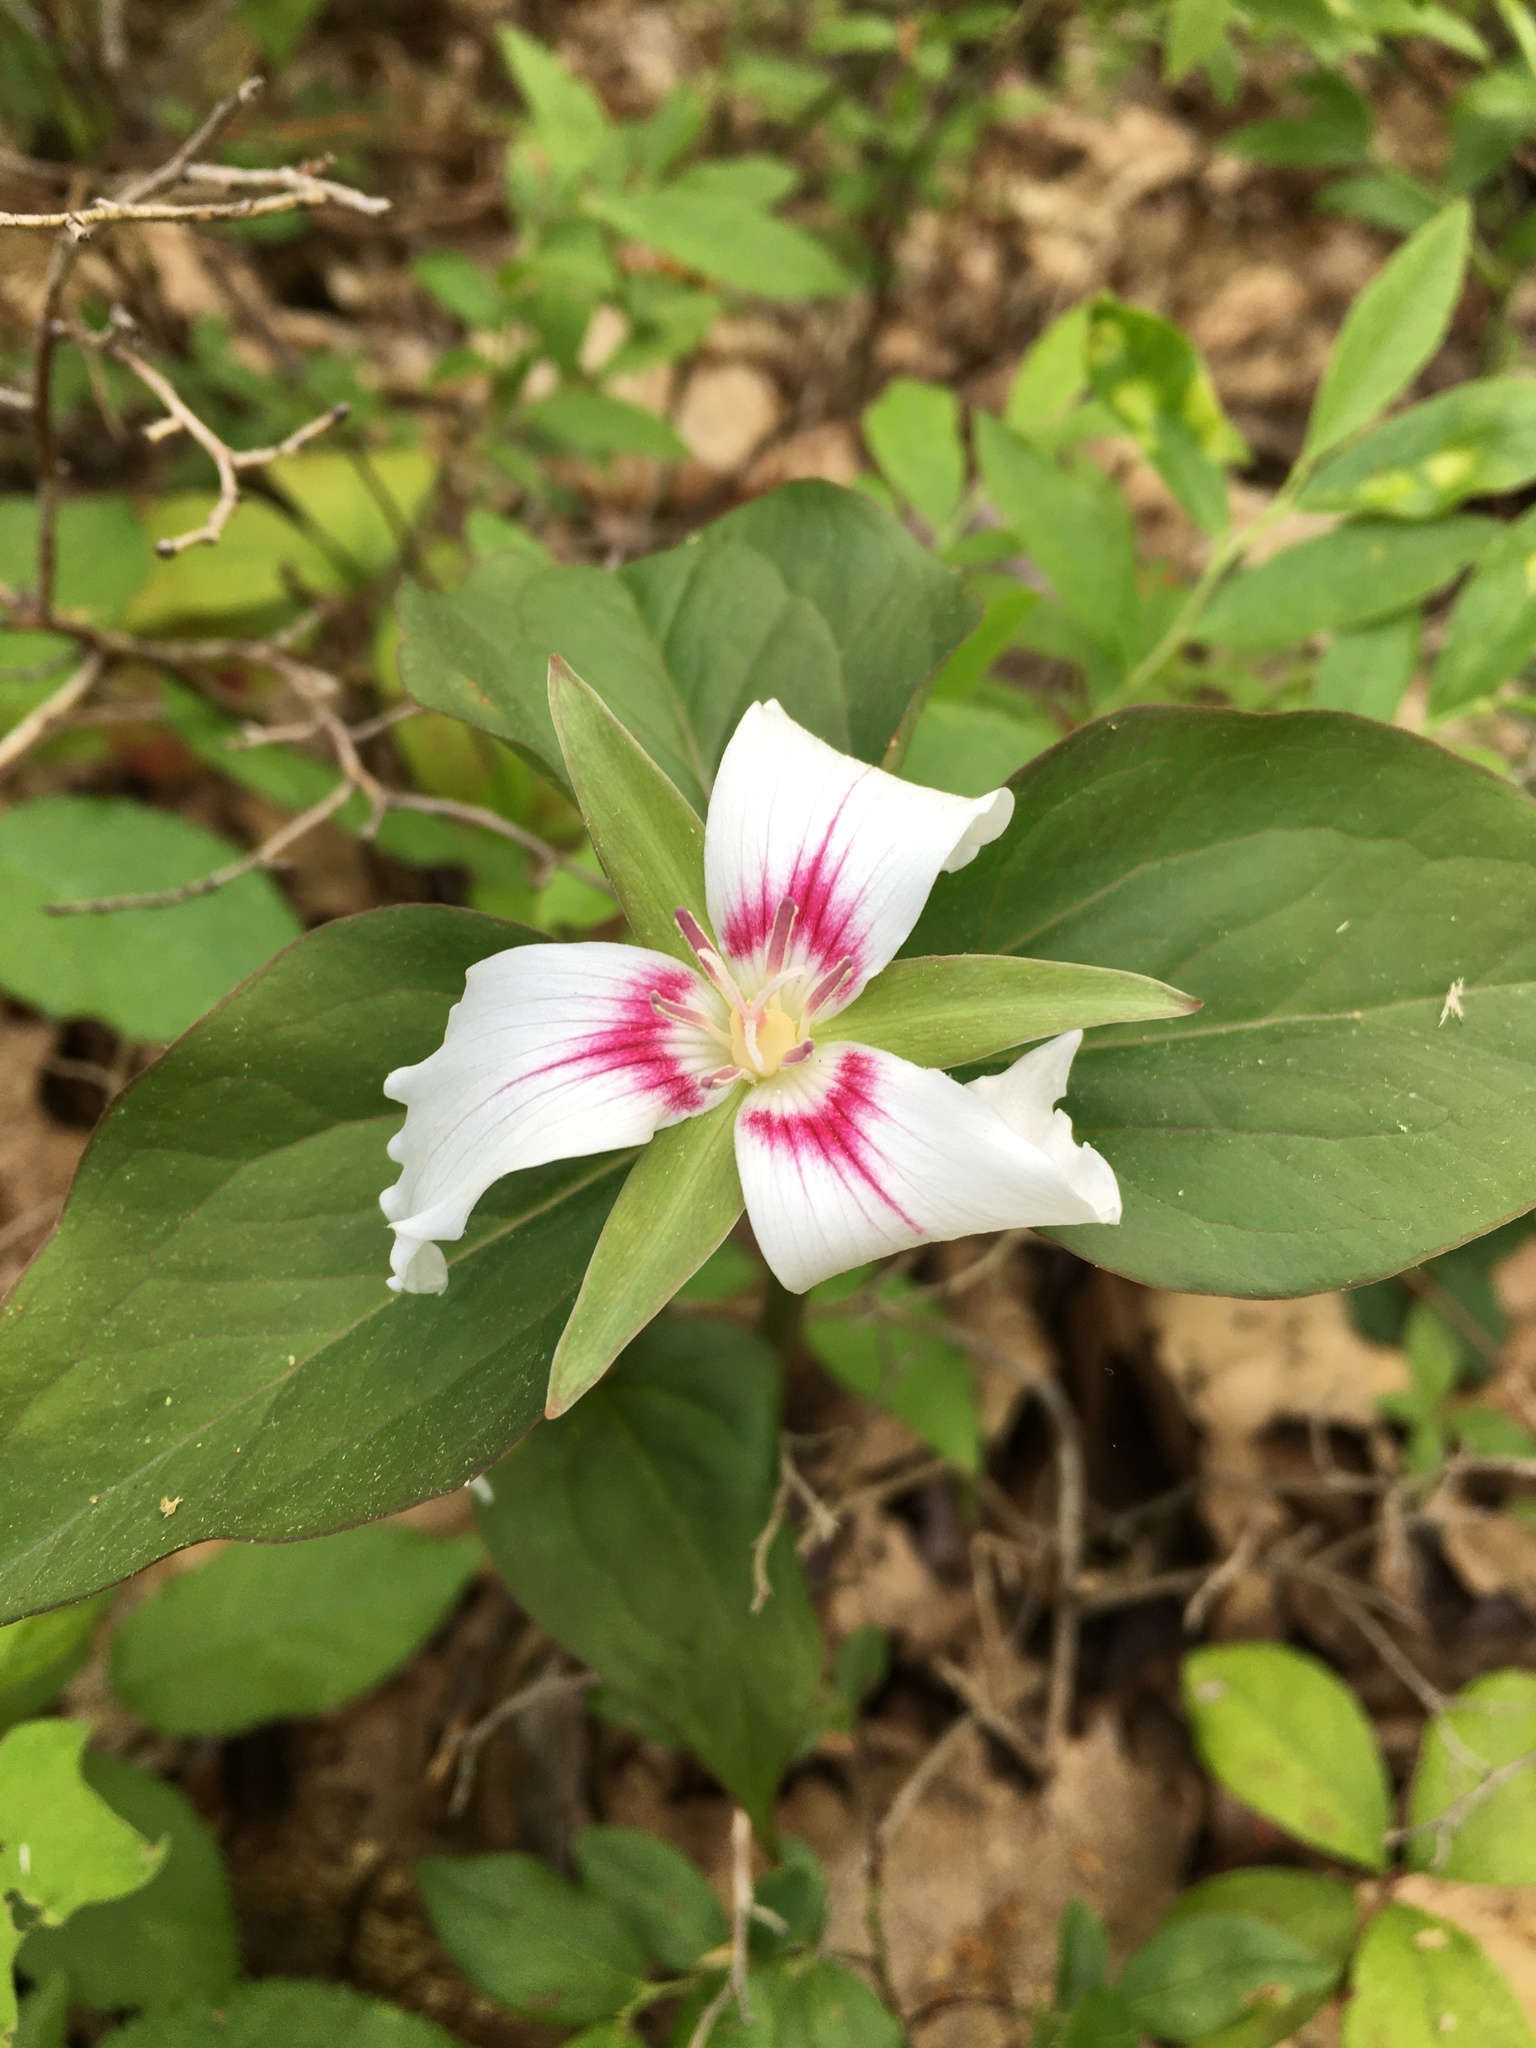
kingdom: Plantae
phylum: Tracheophyta
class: Liliopsida
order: Liliales
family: Melanthiaceae
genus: Trillium
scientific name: Trillium undulatum
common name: Paint trillium
